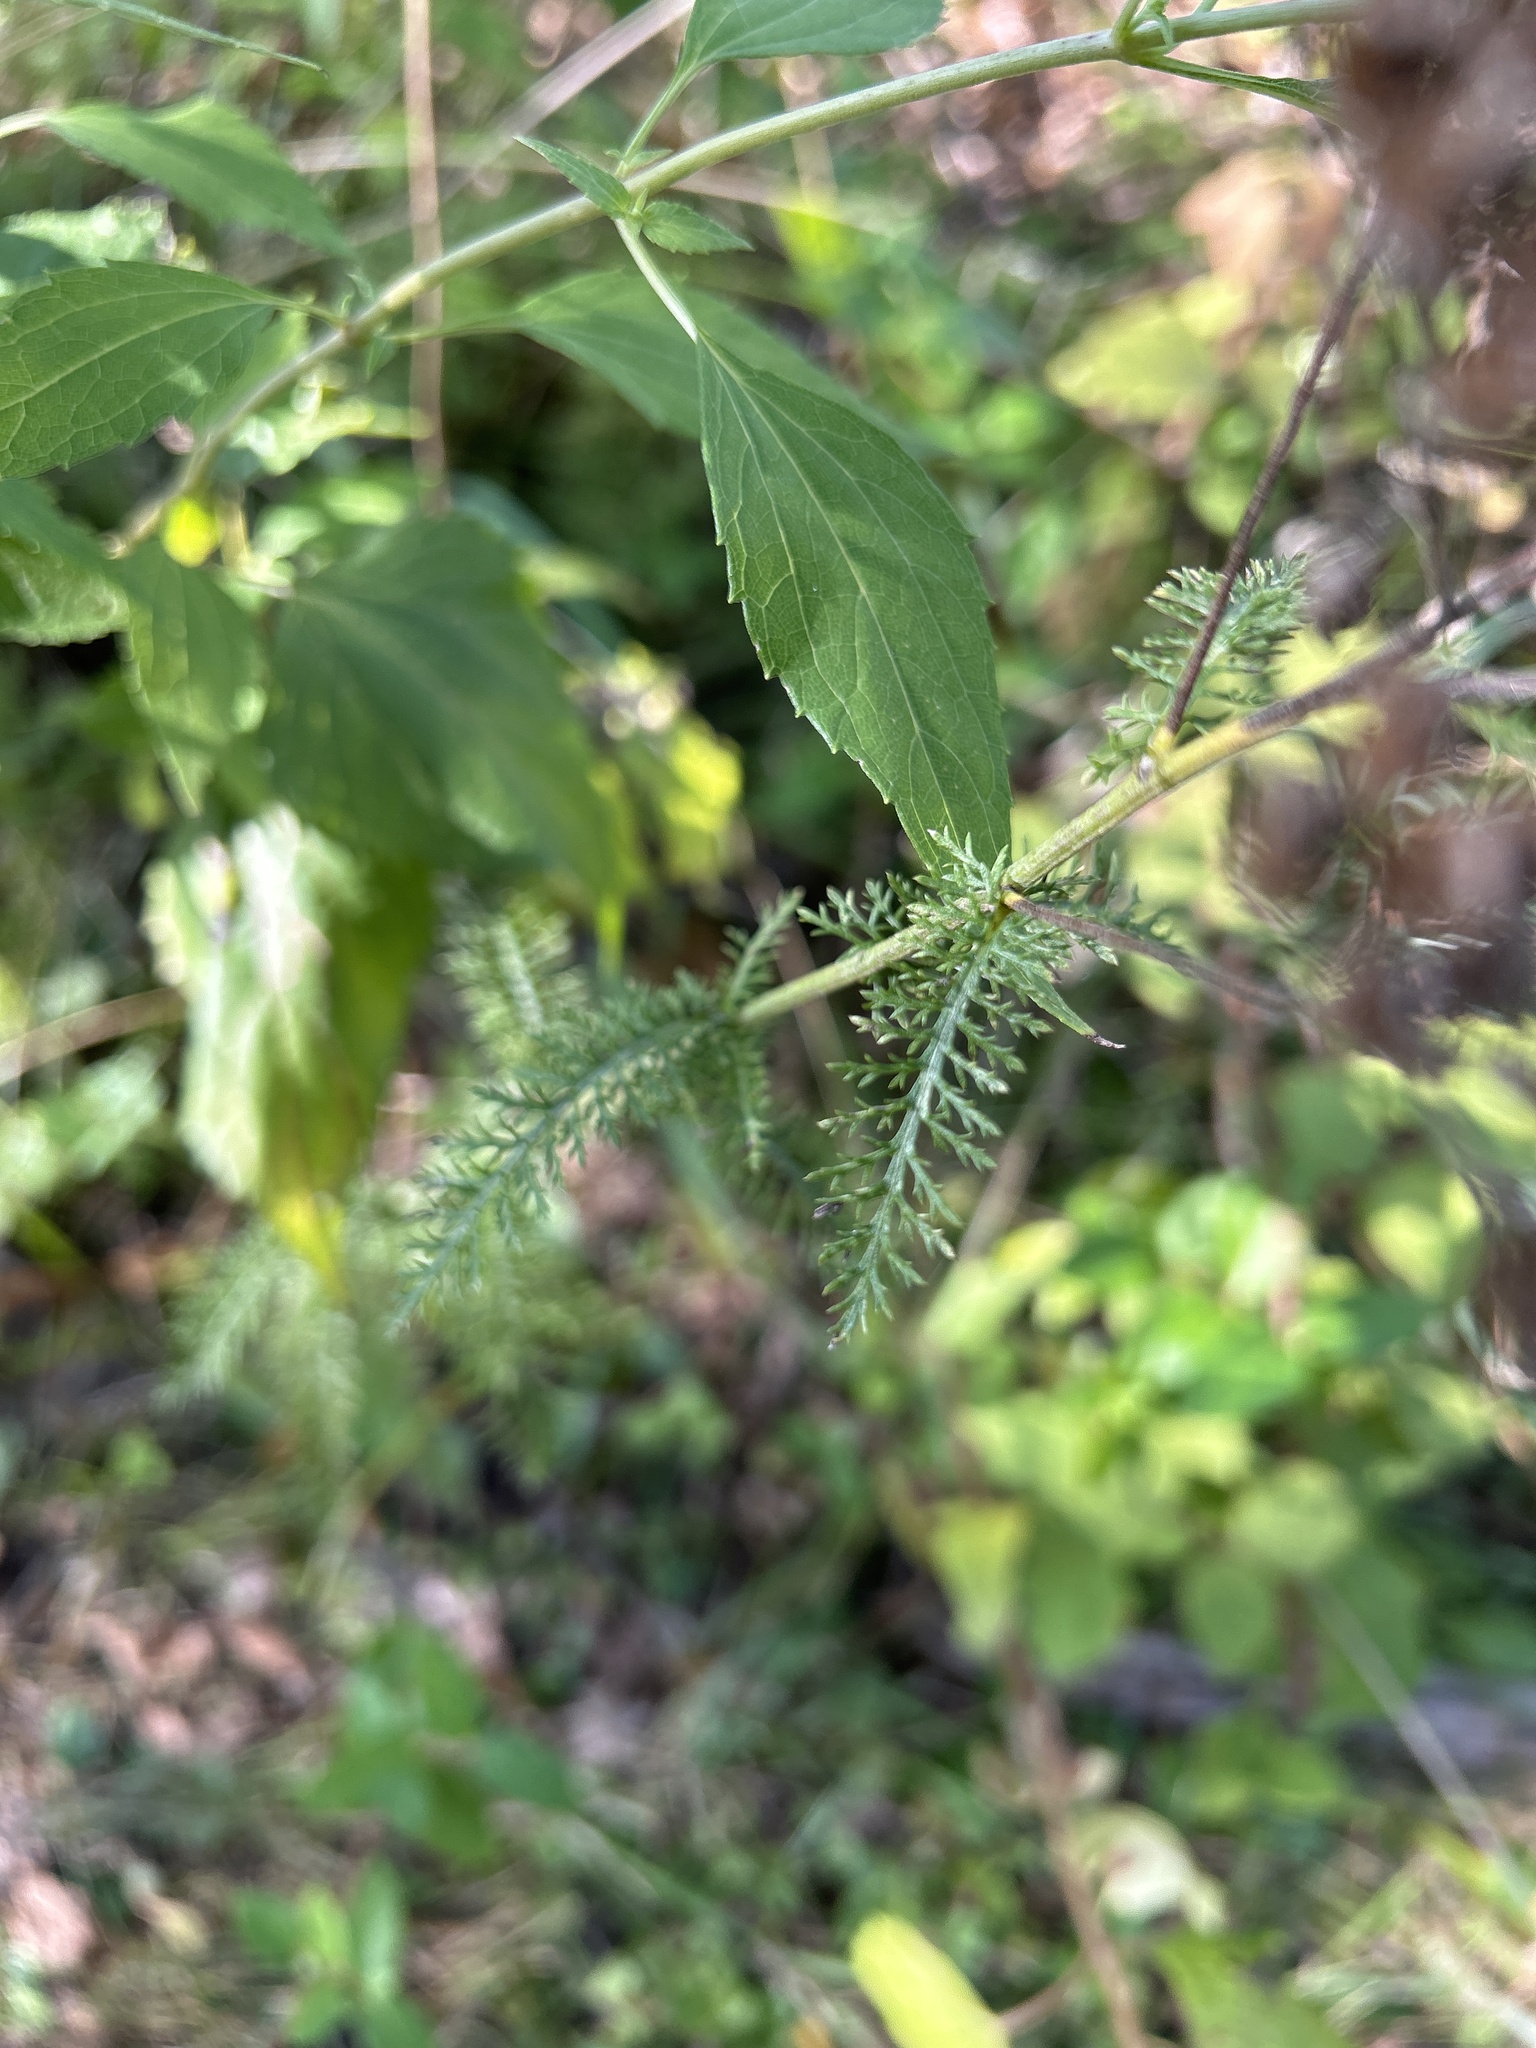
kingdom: Plantae
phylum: Tracheophyta
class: Magnoliopsida
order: Asterales
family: Asteraceae
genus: Achillea
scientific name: Achillea millefolium
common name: Yarrow
